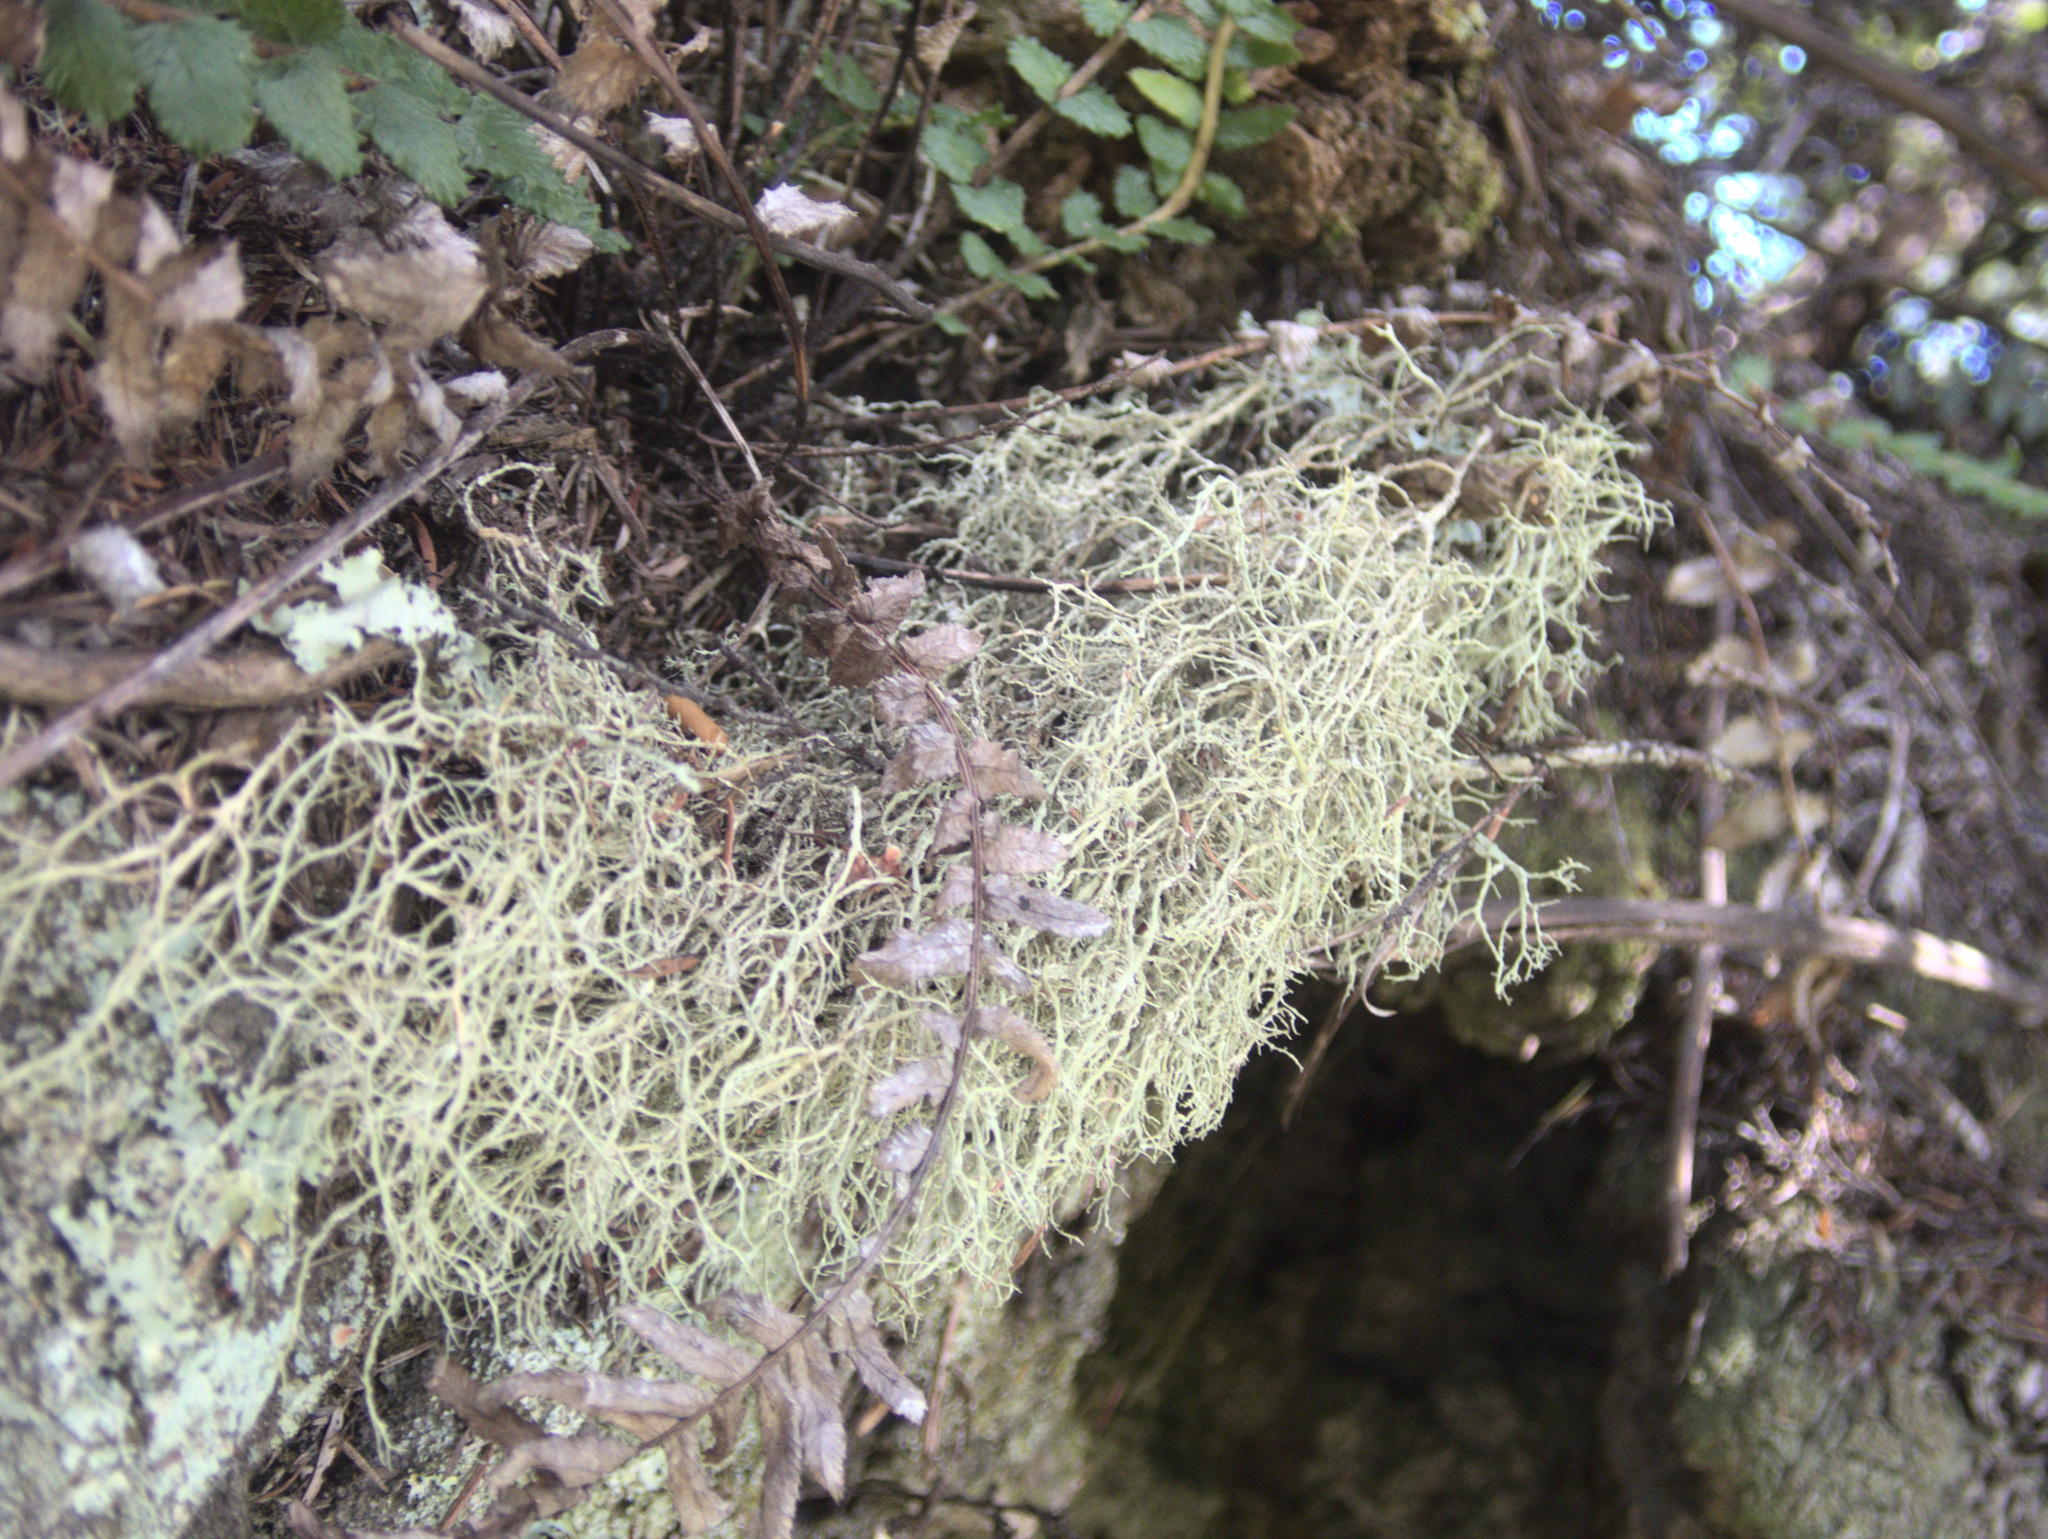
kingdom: Fungi
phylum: Ascomycota
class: Lecanoromycetes
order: Lecanorales
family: Ramalinaceae
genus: Ramalina
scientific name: Ramalina peruviana
